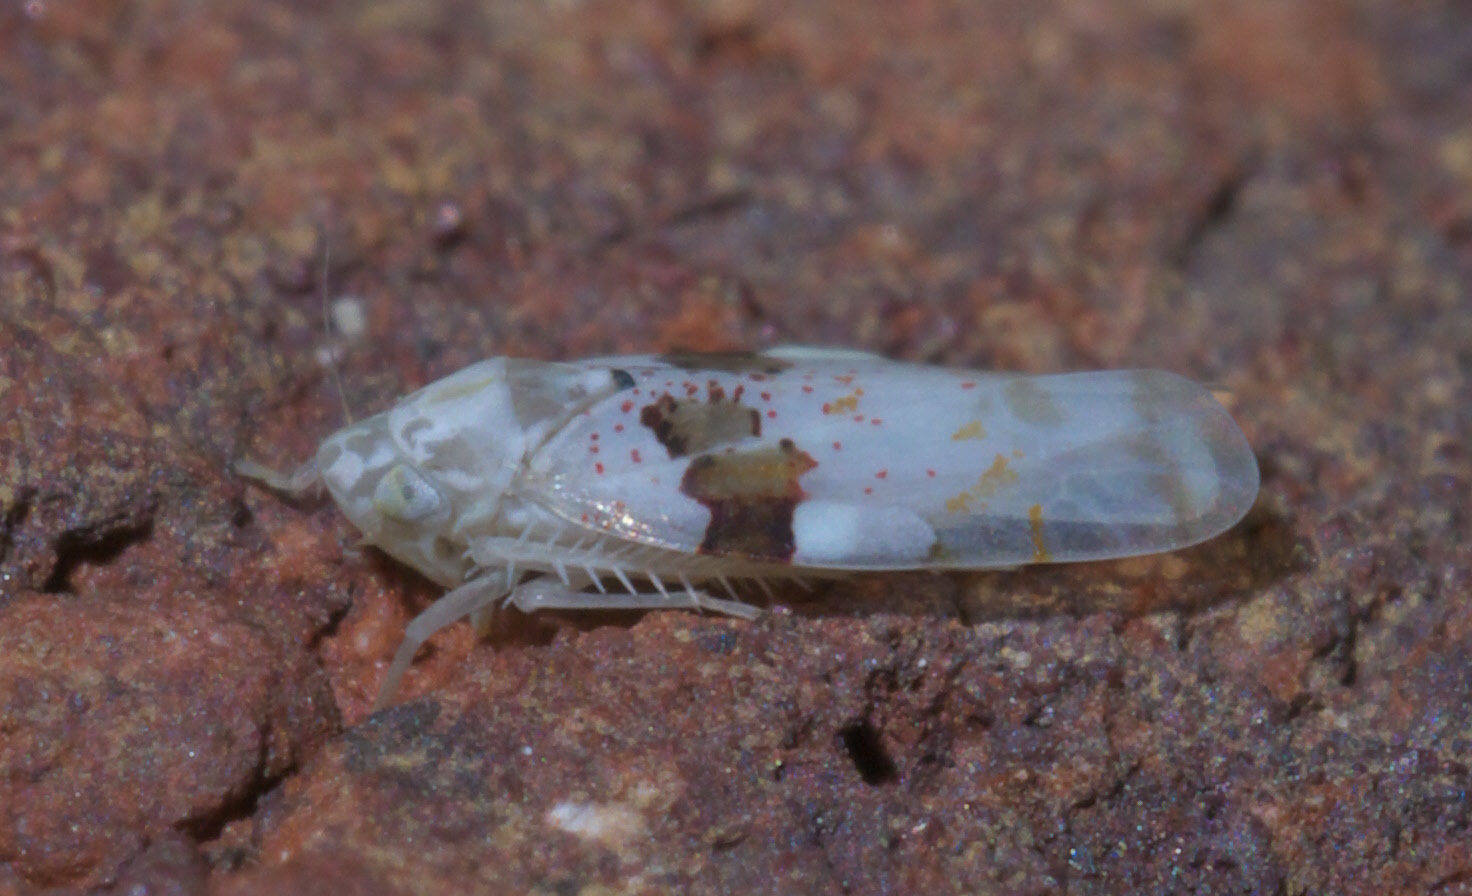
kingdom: Animalia
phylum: Arthropoda
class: Insecta
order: Hemiptera
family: Cicadellidae
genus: Hymetta
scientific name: Hymetta balteata
